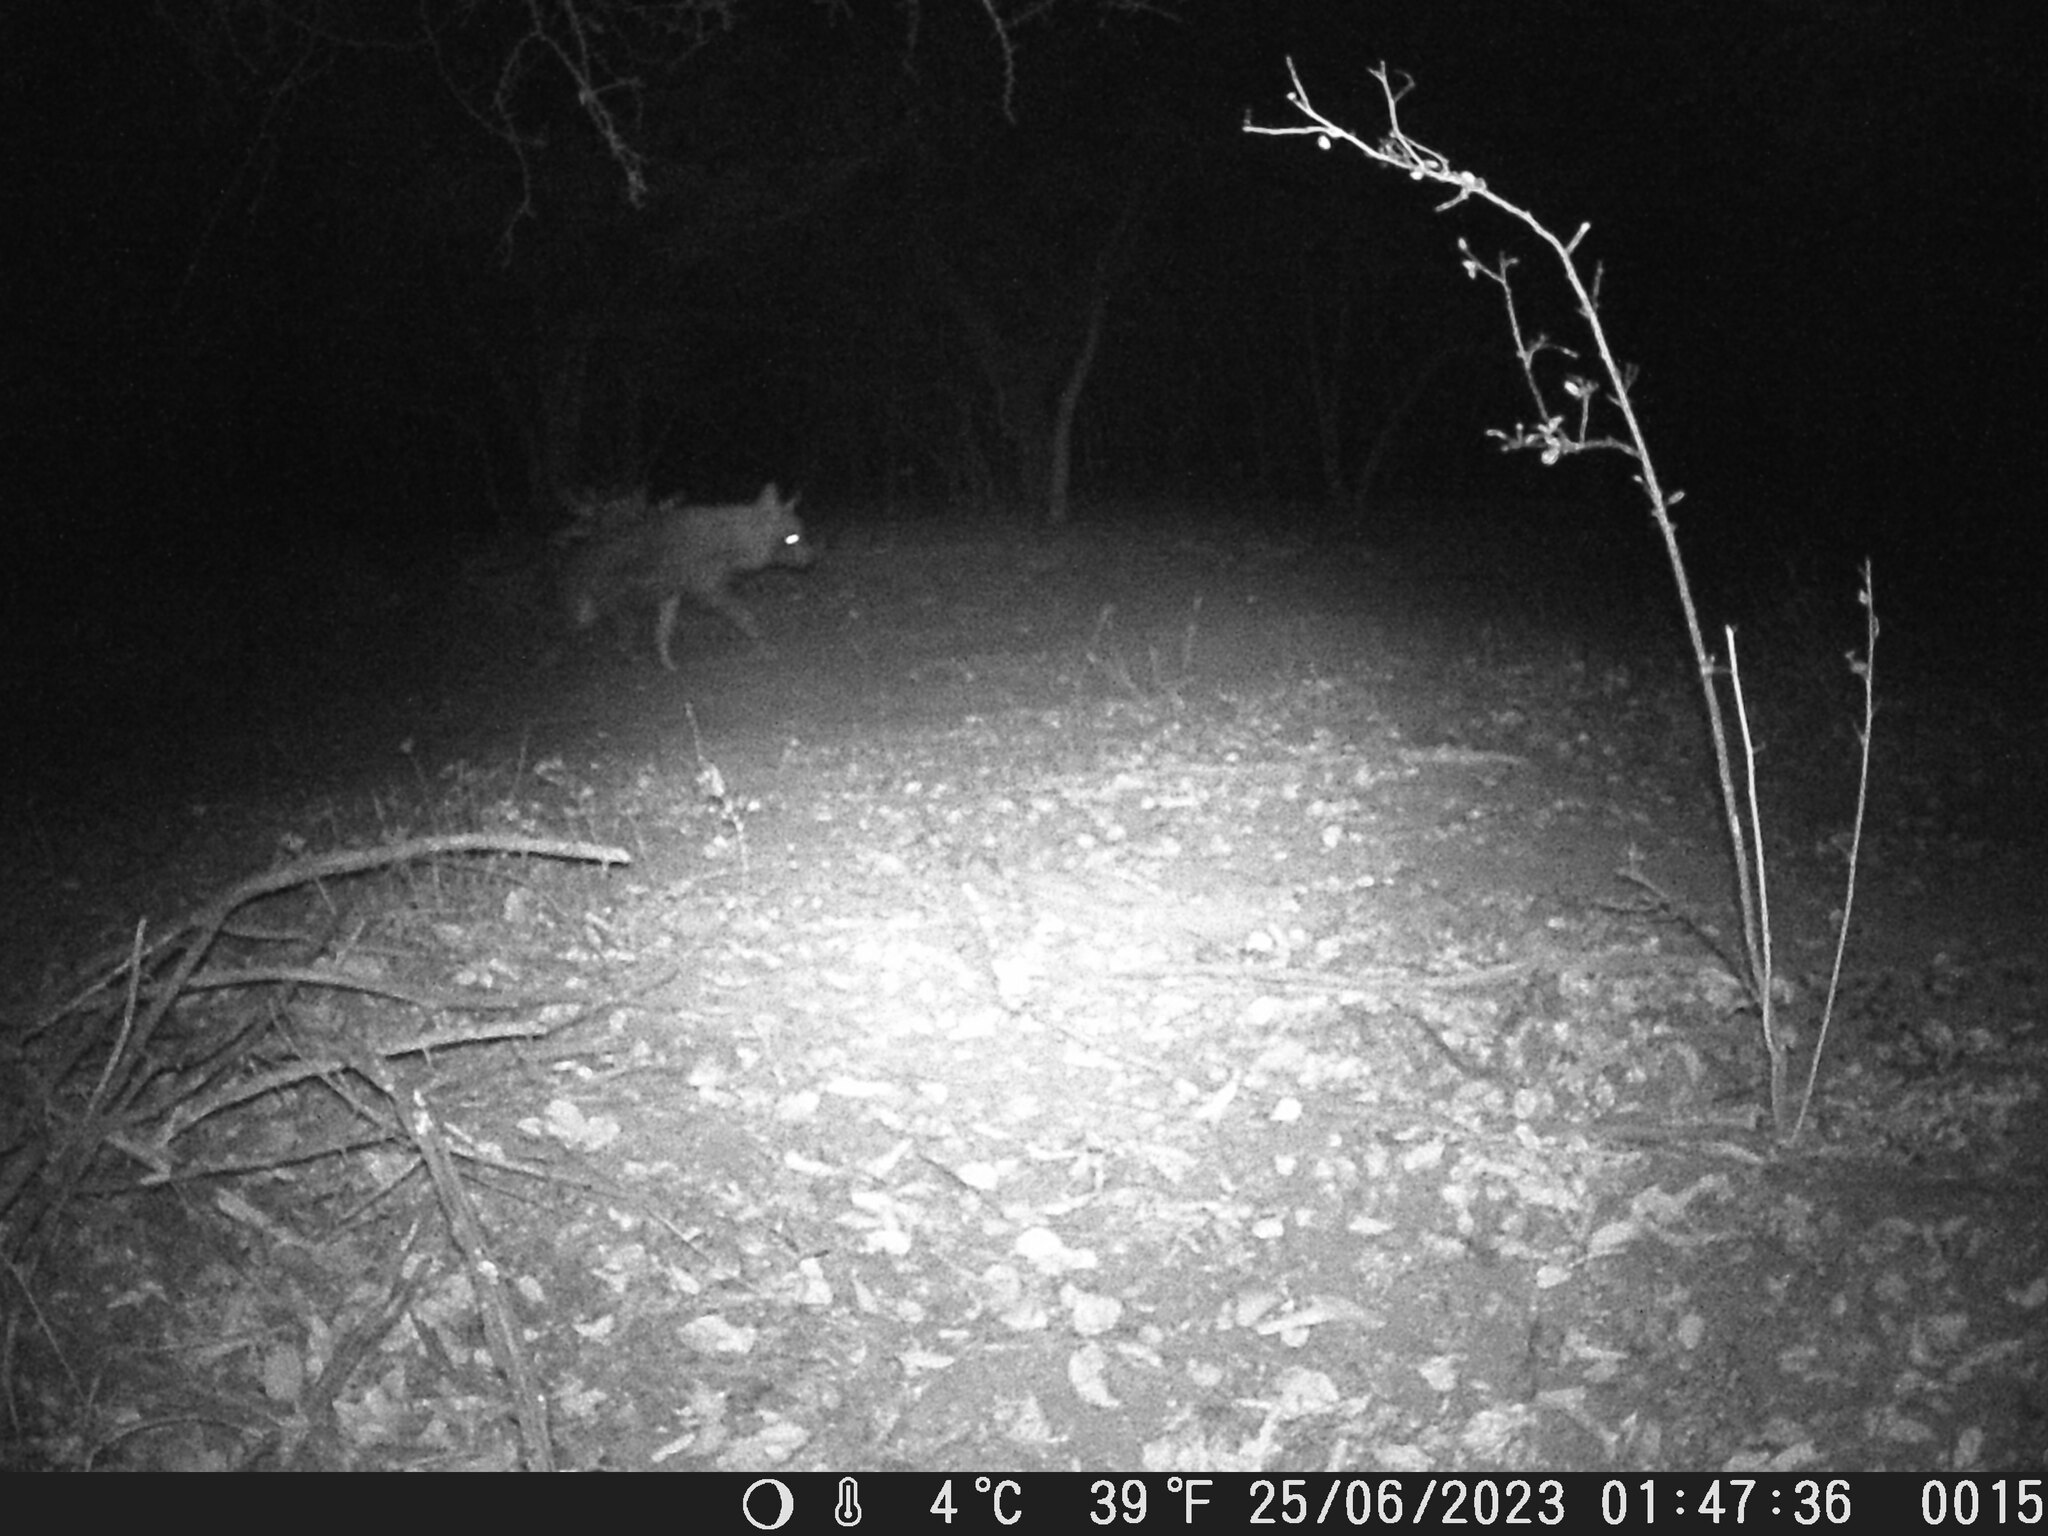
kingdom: Animalia
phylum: Chordata
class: Mammalia
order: Carnivora
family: Hyaenidae
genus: Hyaena
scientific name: Hyaena brunnea
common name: Brown hyena
